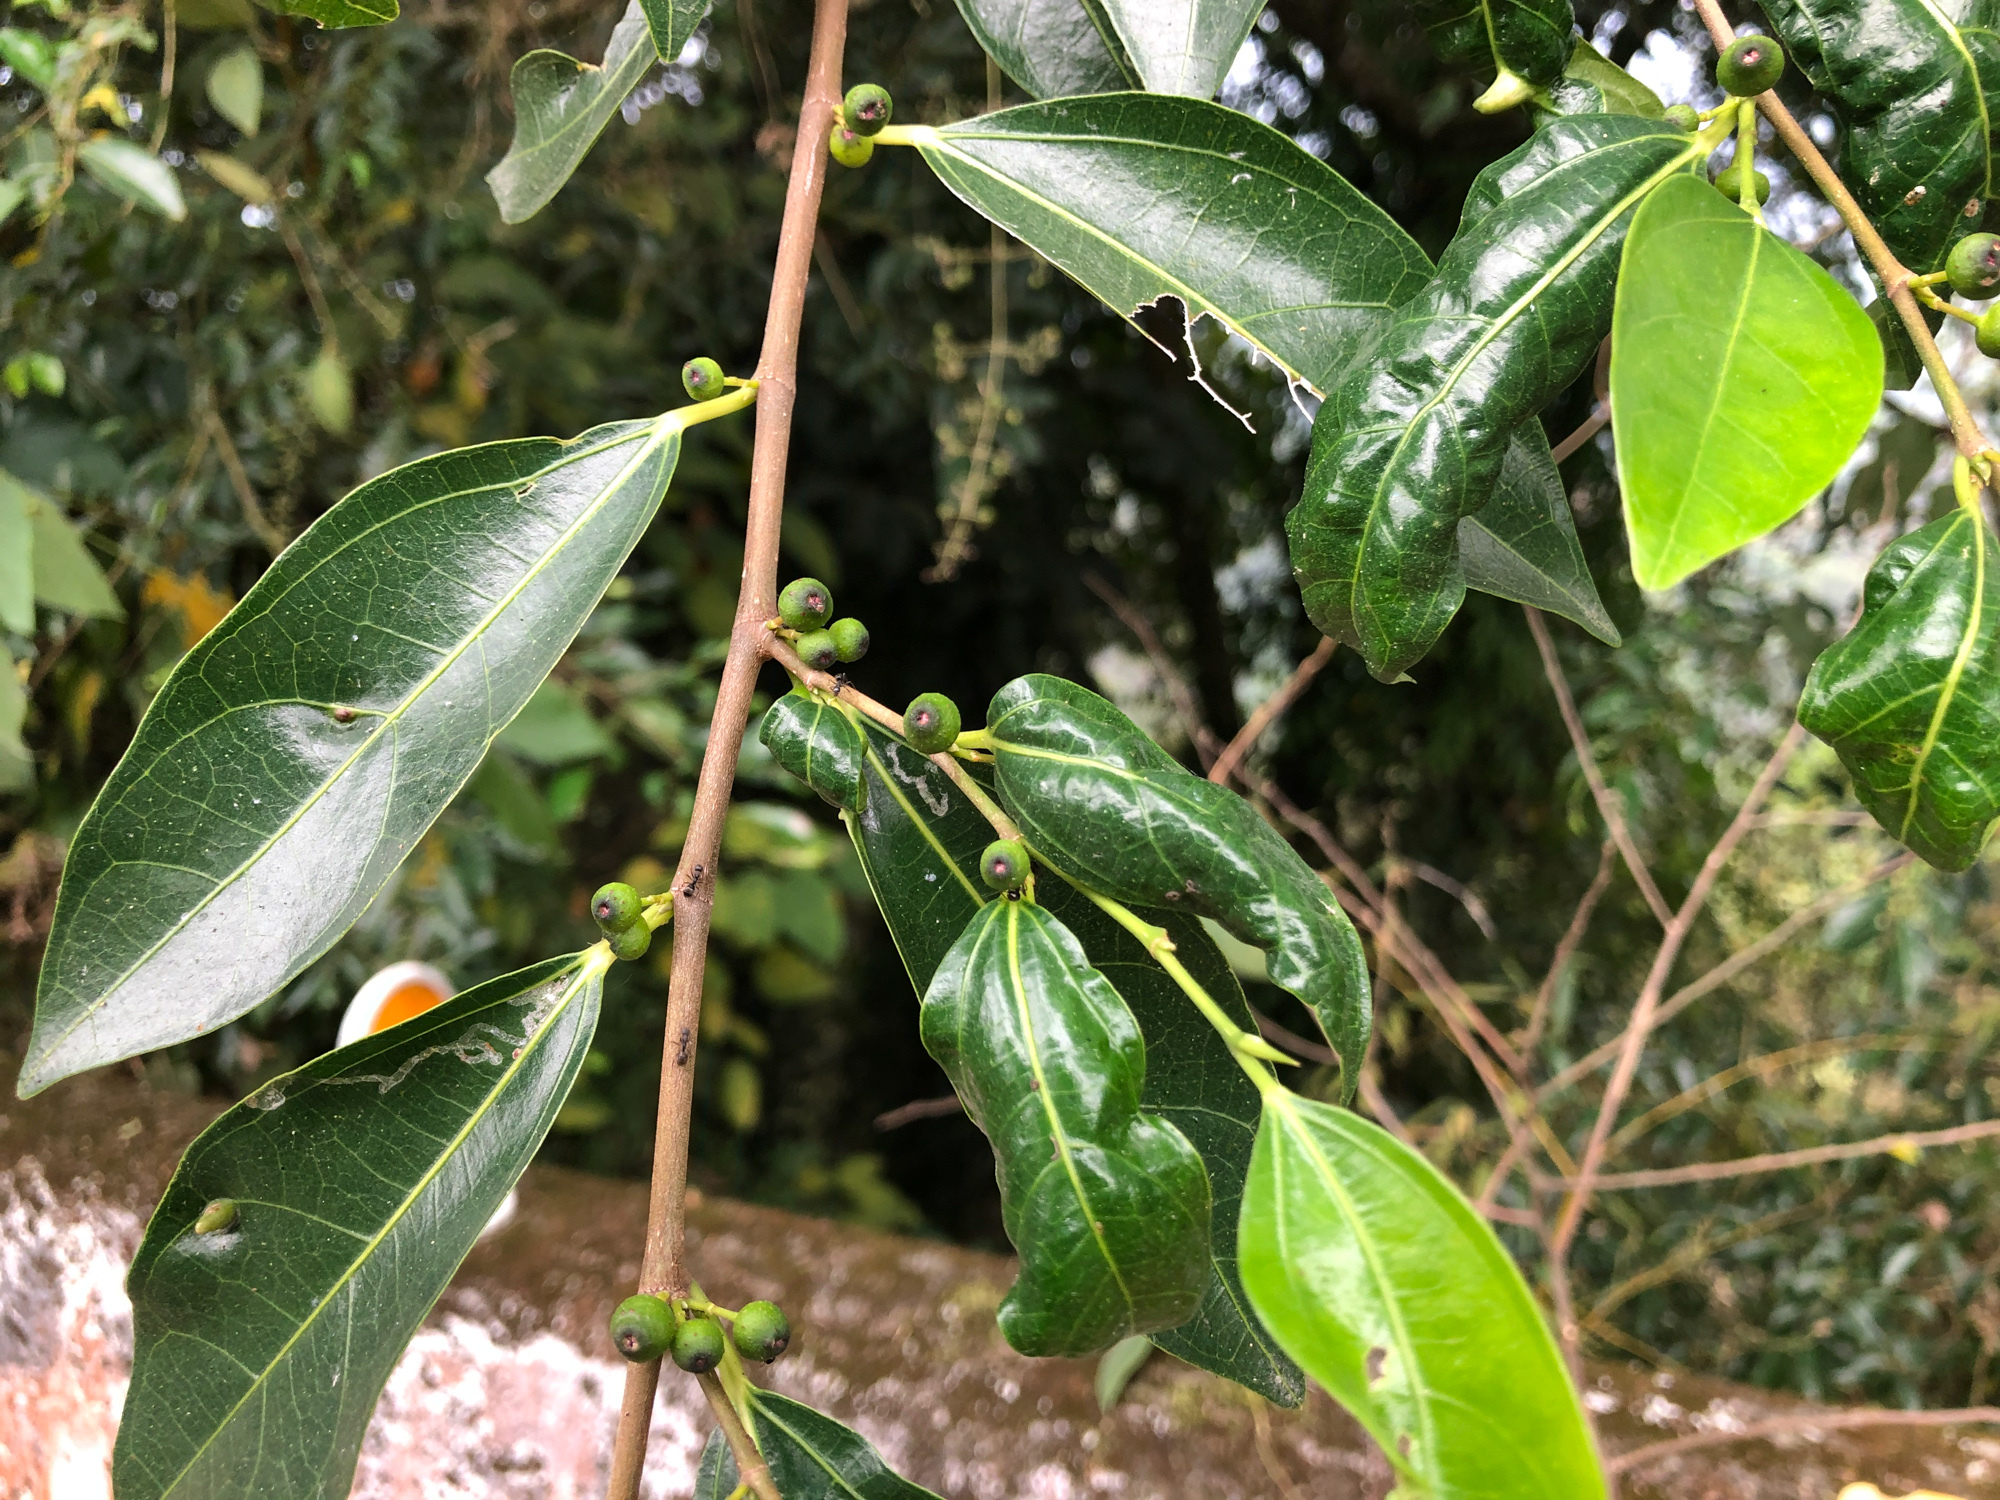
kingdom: Plantae
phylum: Tracheophyta
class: Magnoliopsida
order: Rosales
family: Moraceae
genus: Ficus
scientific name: Ficus ampelos
